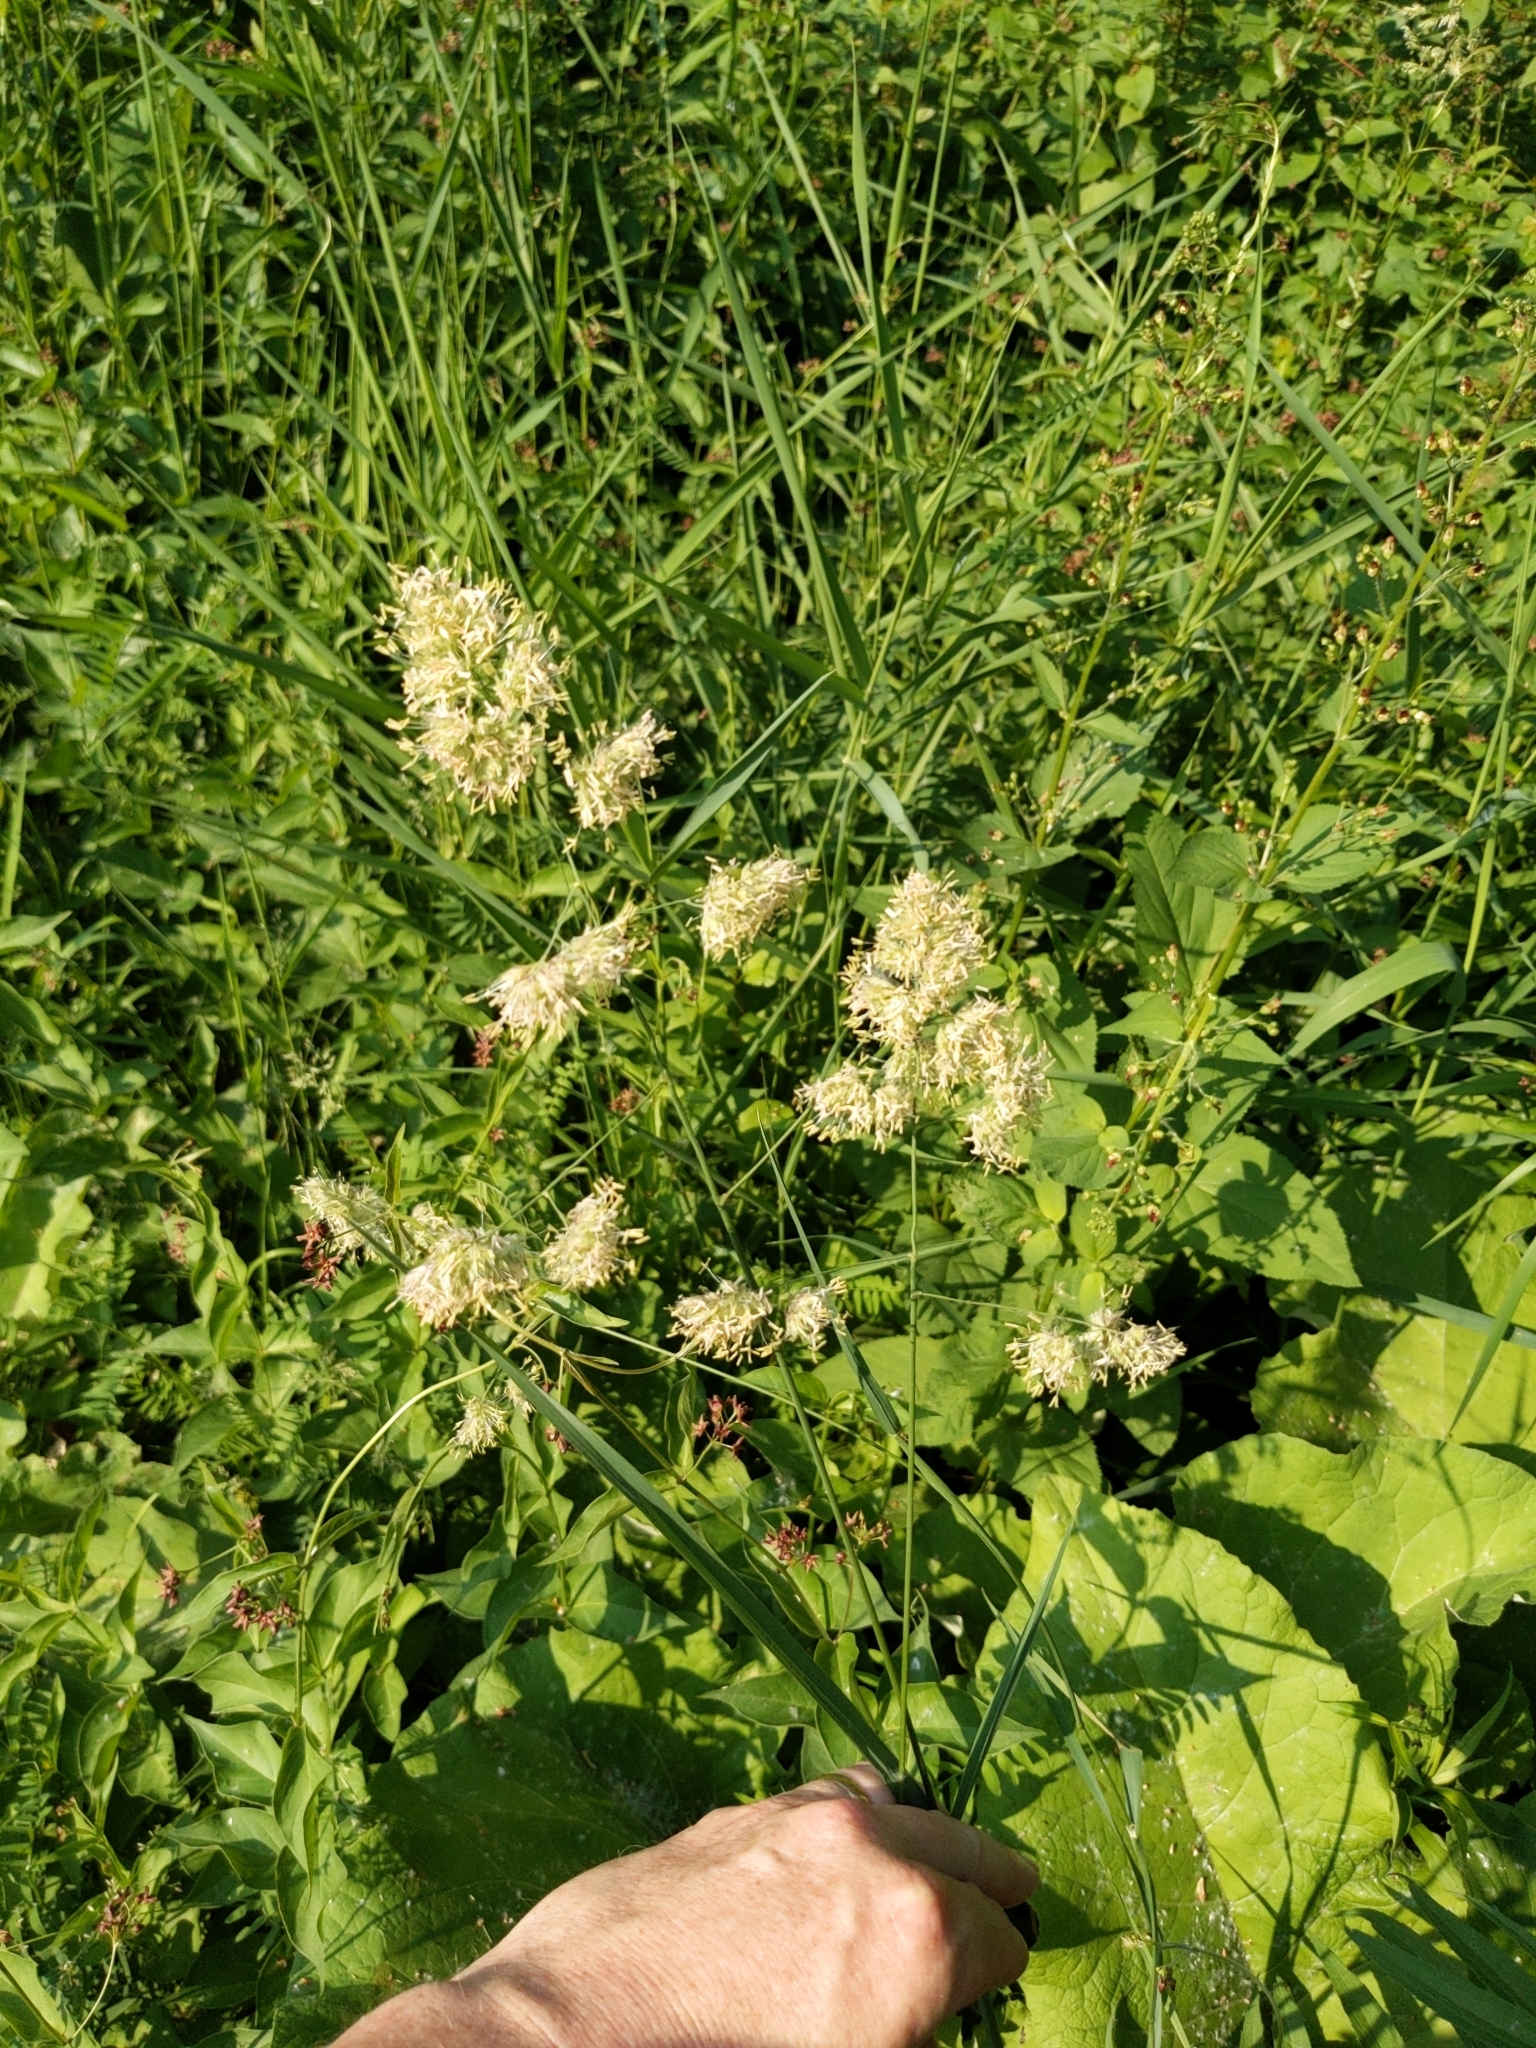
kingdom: Plantae
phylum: Tracheophyta
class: Liliopsida
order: Poales
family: Poaceae
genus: Dactylis
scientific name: Dactylis glomerata
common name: Orchardgrass
